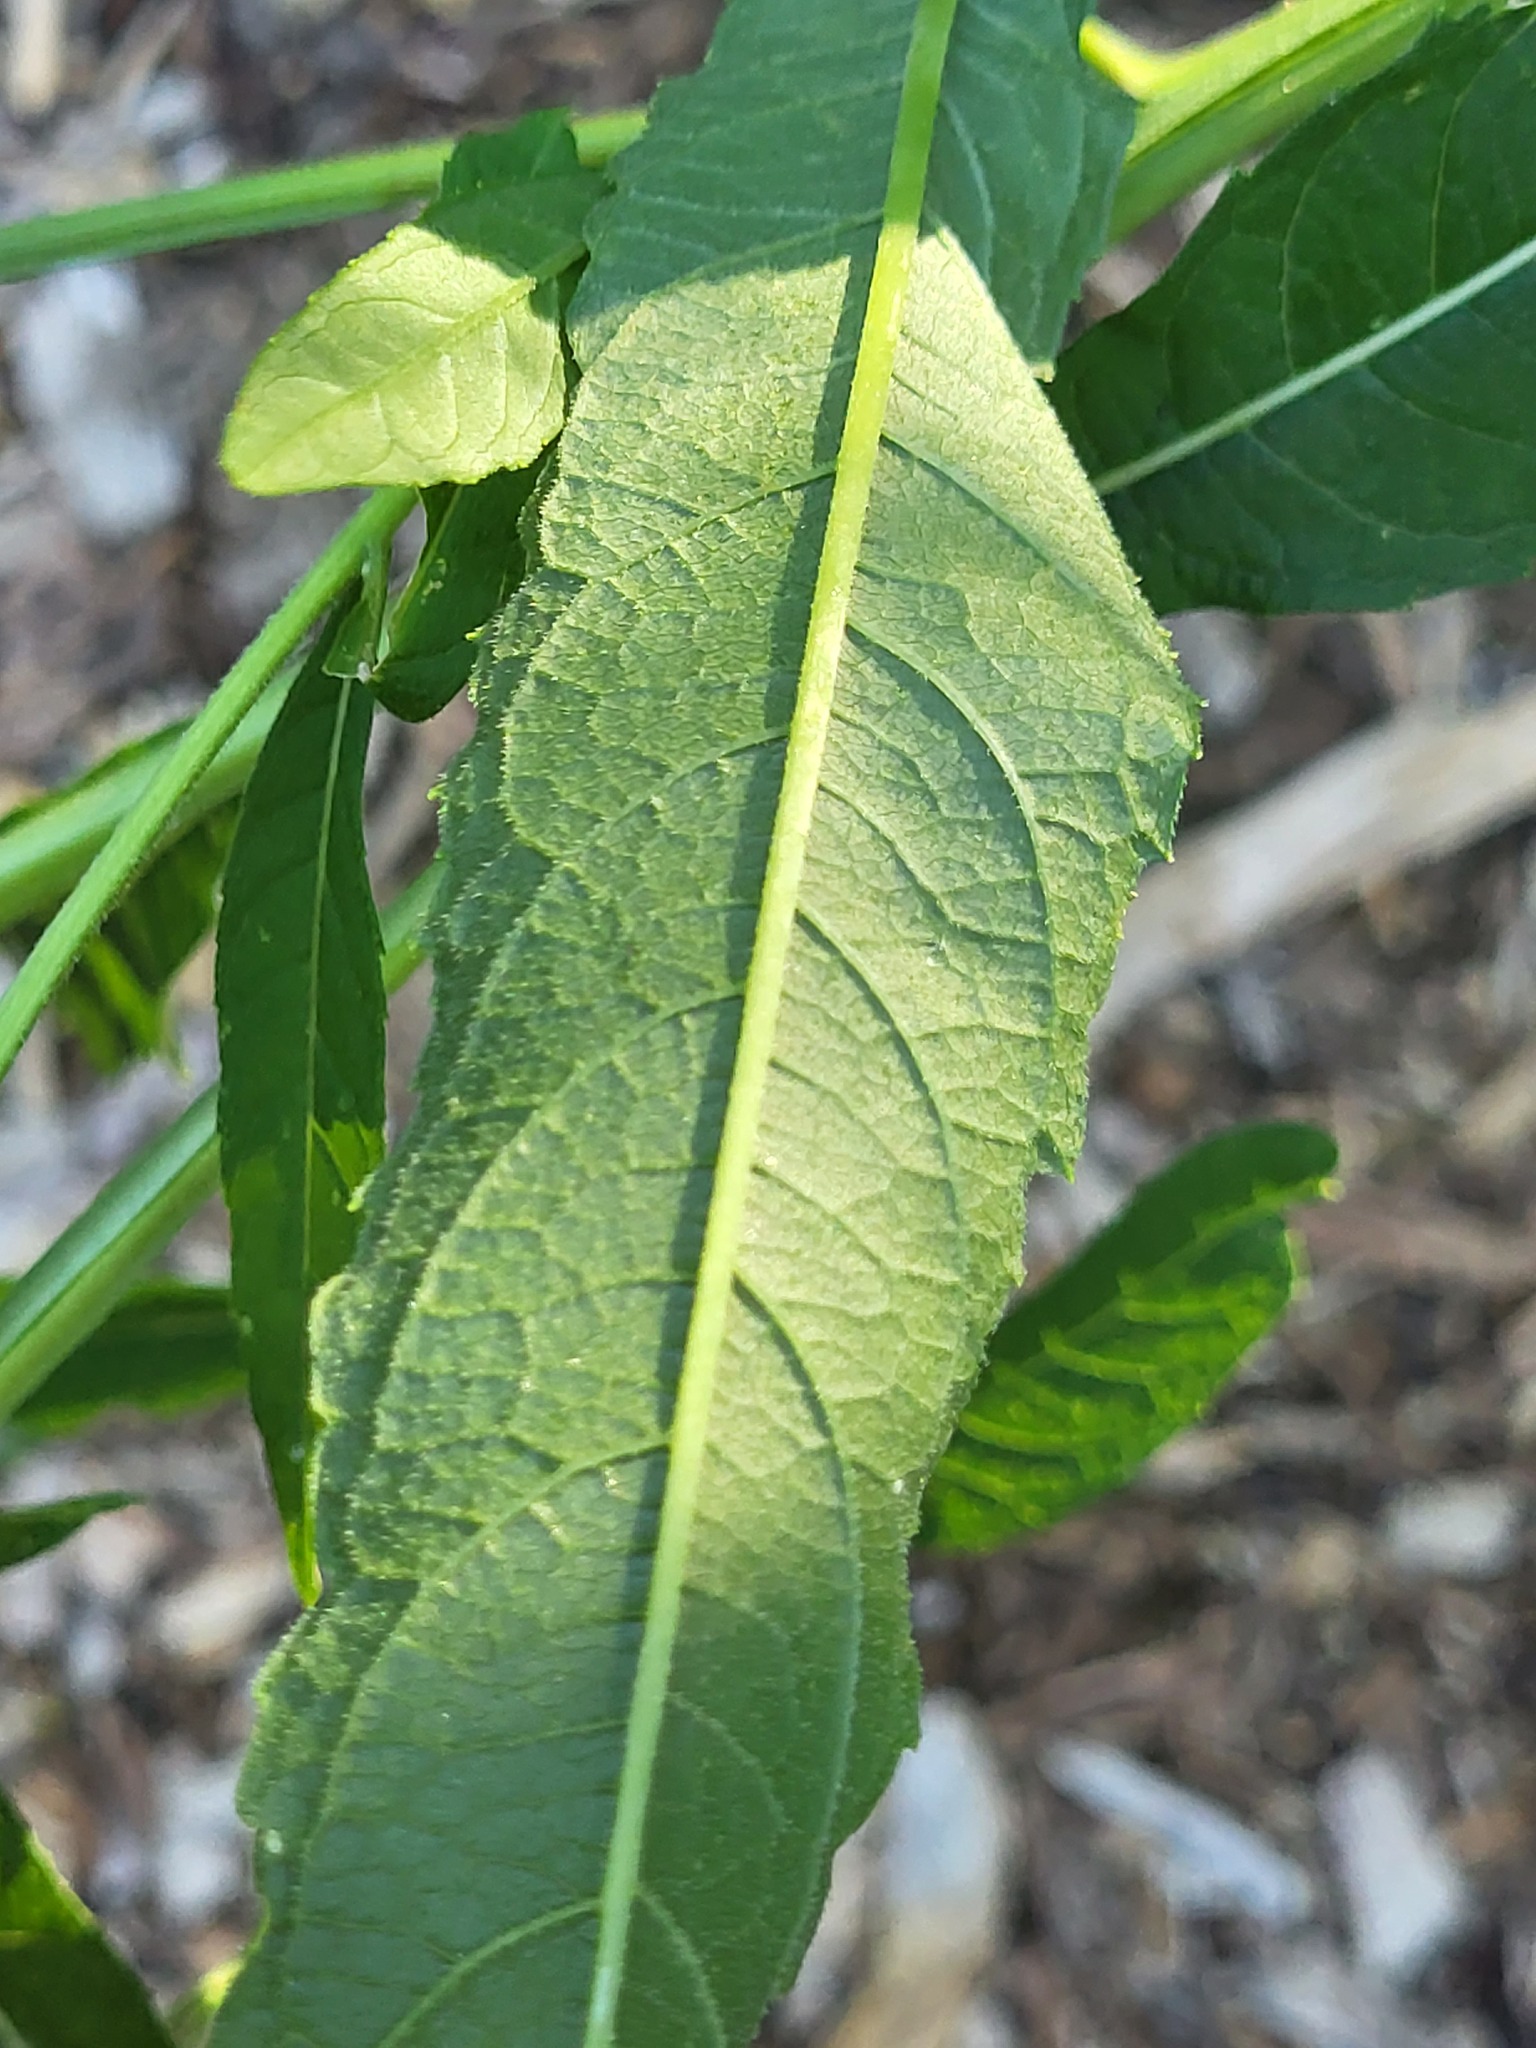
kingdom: Plantae
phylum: Tracheophyta
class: Magnoliopsida
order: Asterales
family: Asteraceae
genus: Verbesina
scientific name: Verbesina alternifolia
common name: Wingstem
